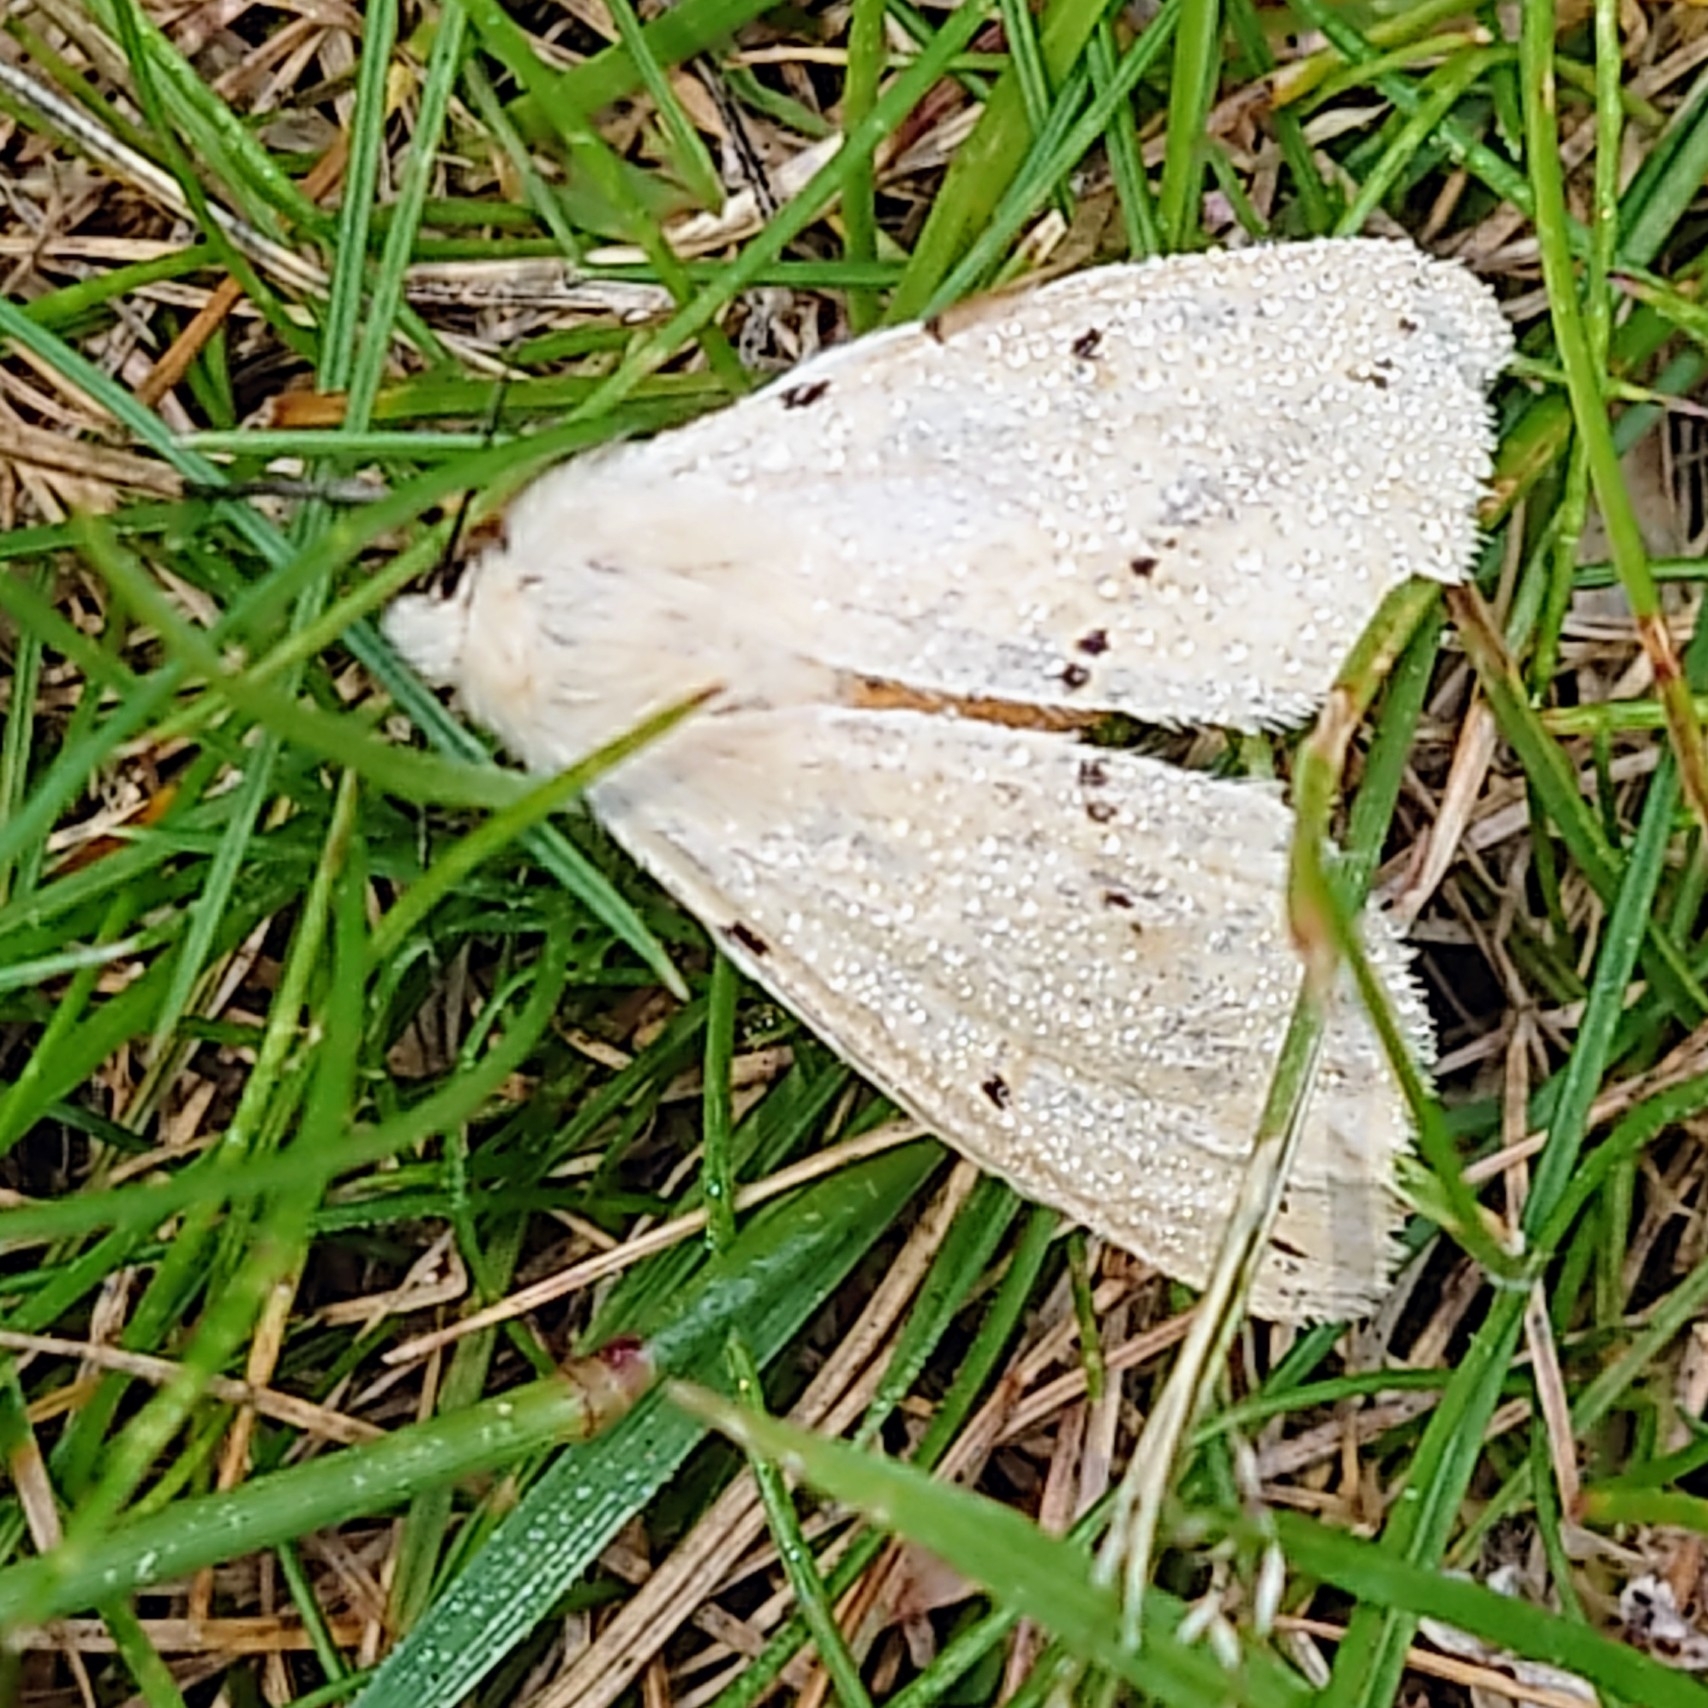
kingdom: Animalia
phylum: Arthropoda
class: Insecta
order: Lepidoptera
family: Erebidae
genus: Spilarctia
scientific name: Spilarctia lutea
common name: Buff ermine
